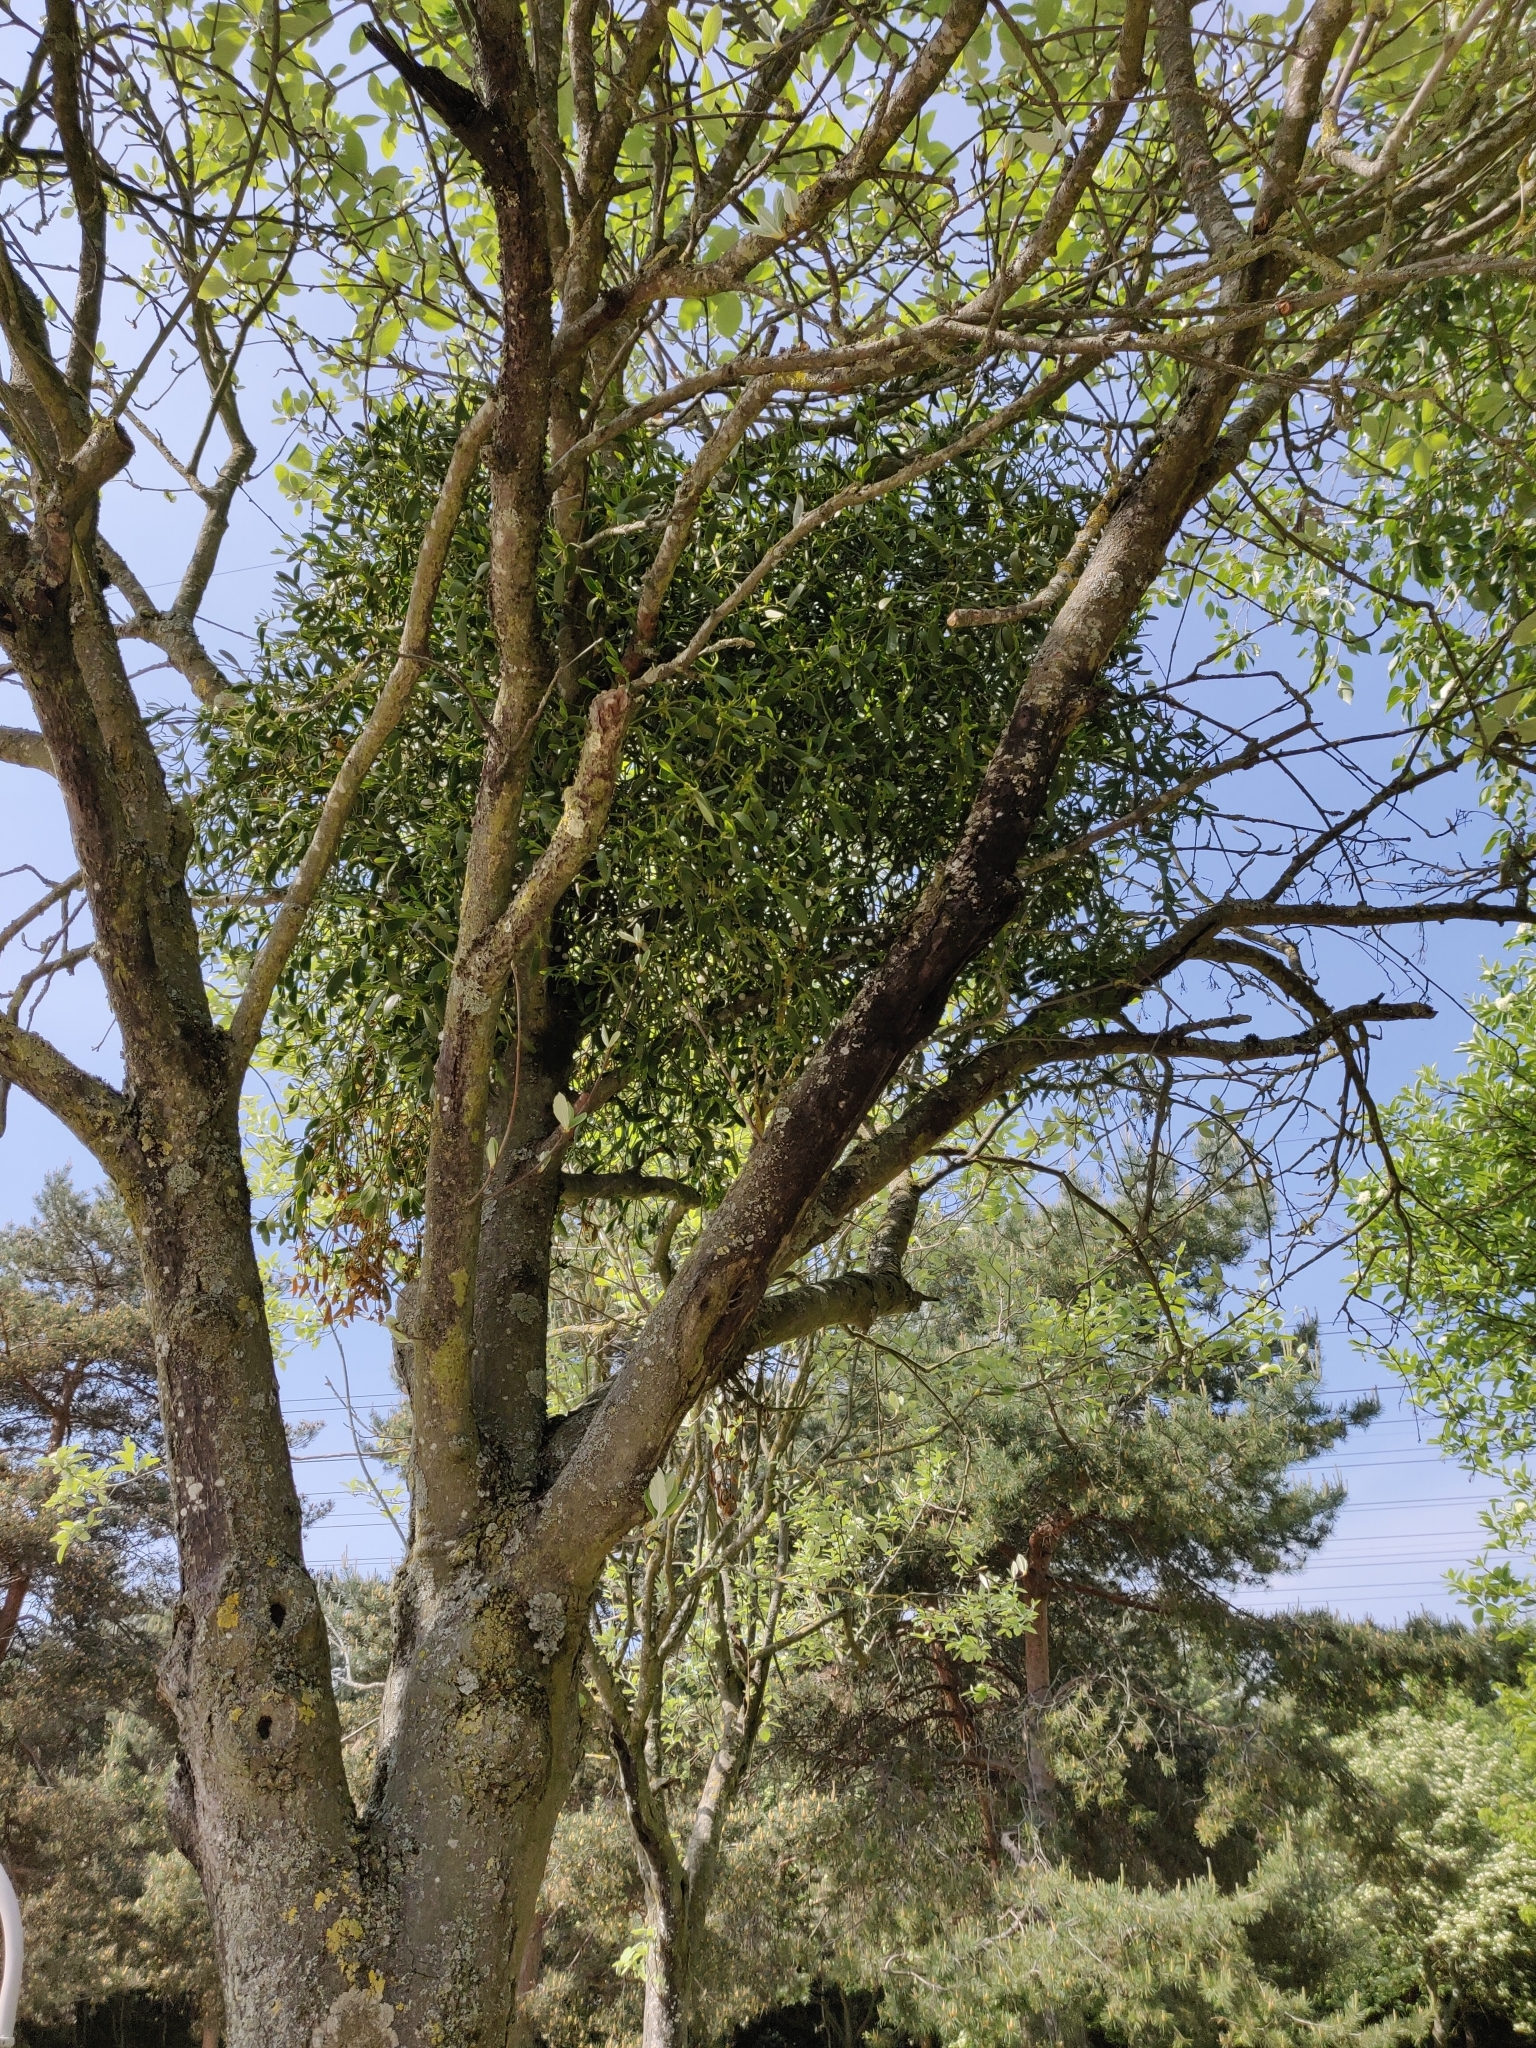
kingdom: Plantae
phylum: Tracheophyta
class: Magnoliopsida
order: Santalales
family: Viscaceae
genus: Viscum
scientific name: Viscum album
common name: Mistletoe
